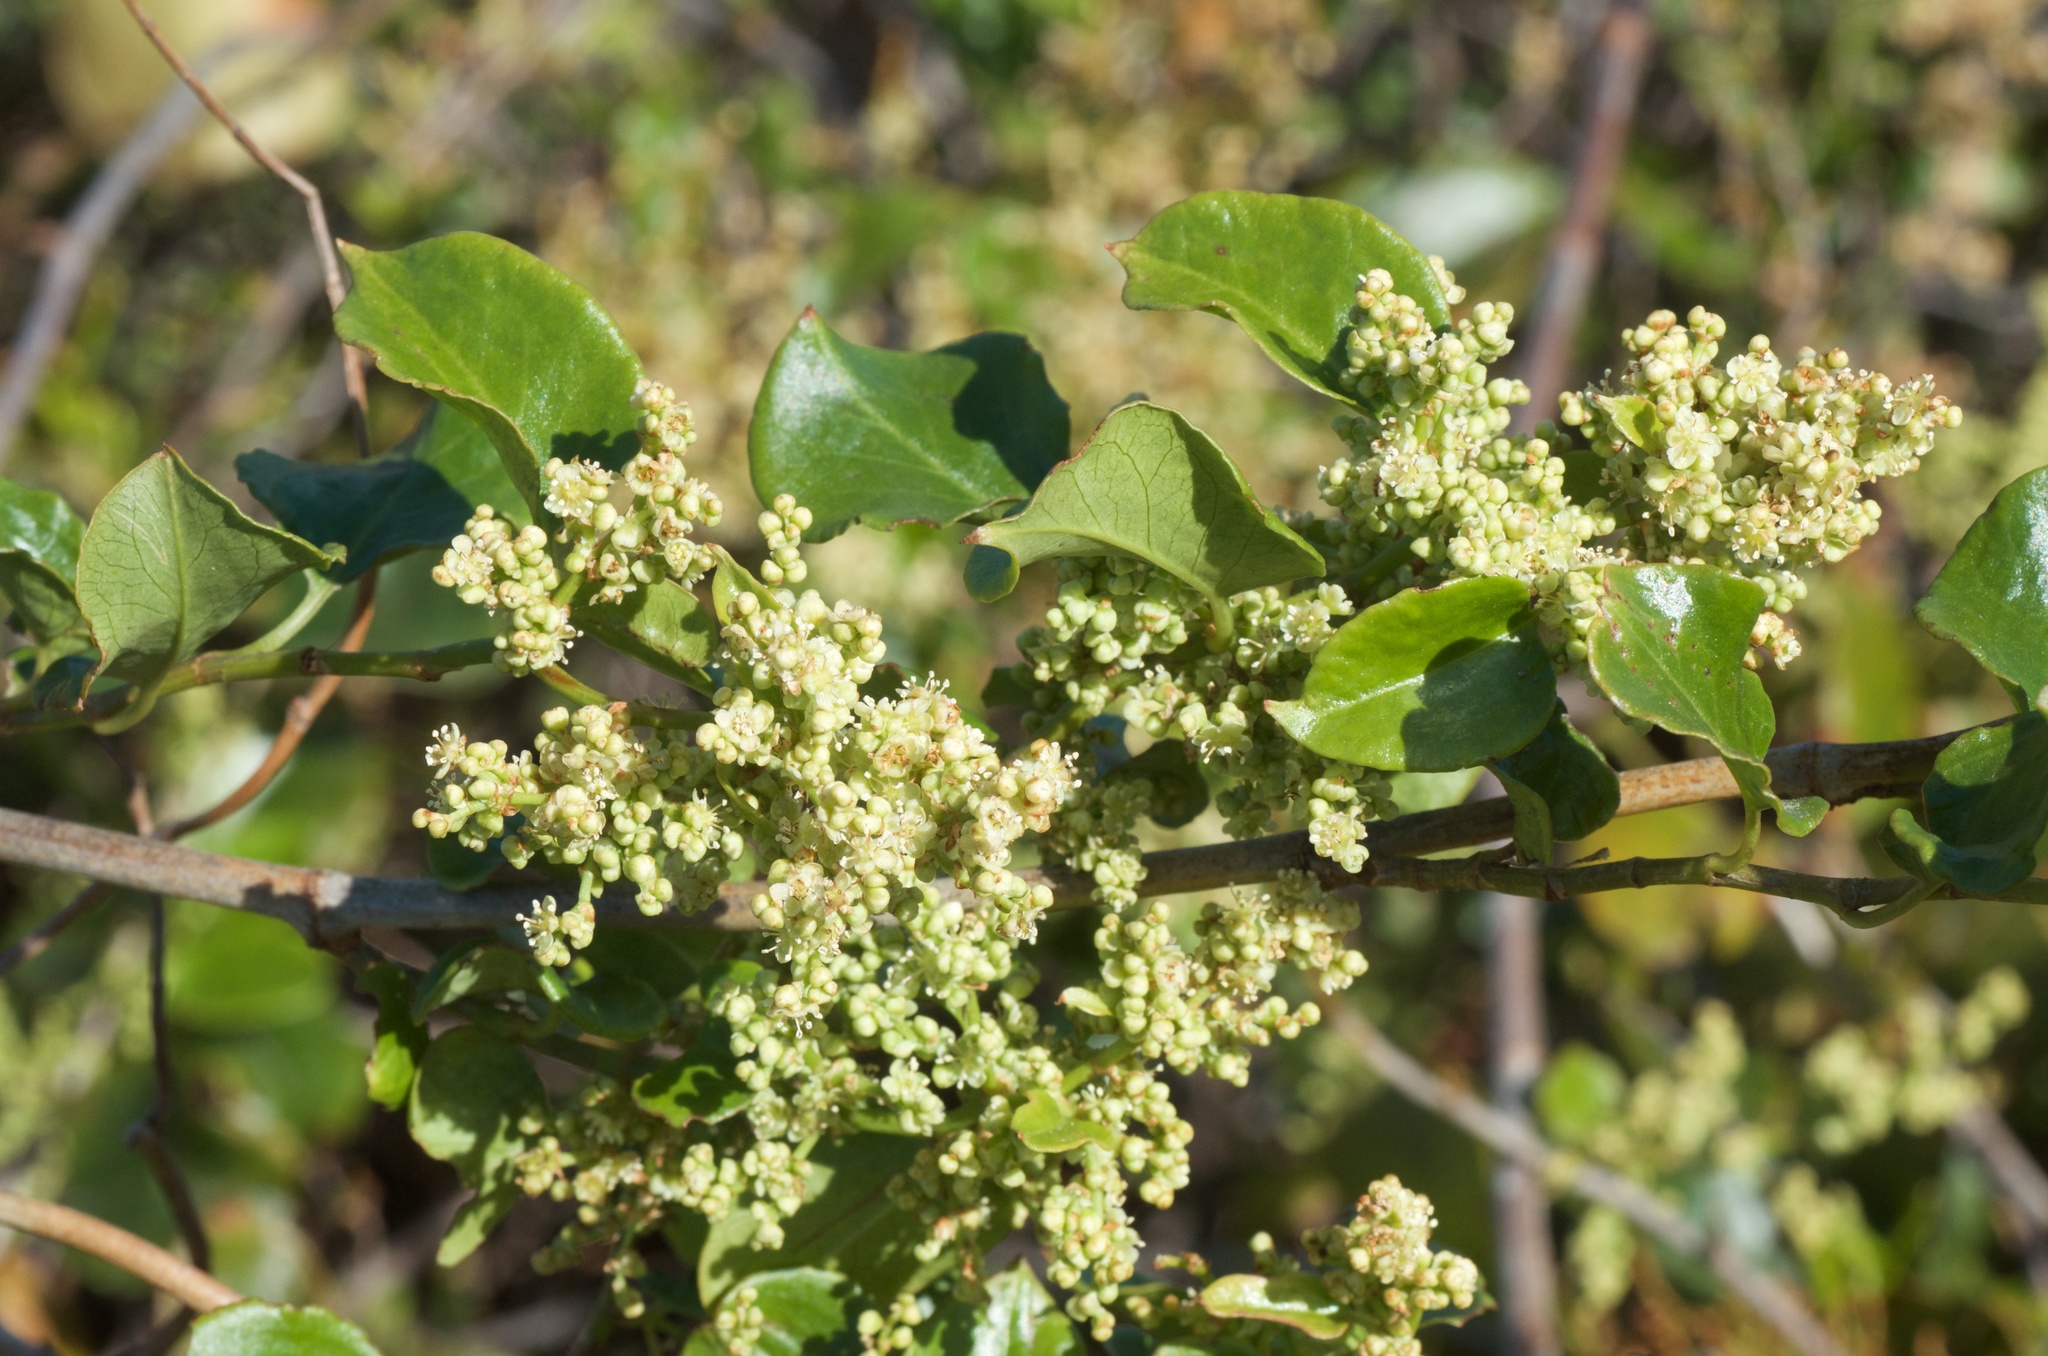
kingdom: Plantae
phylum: Tracheophyta
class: Magnoliopsida
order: Caryophyllales
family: Polygonaceae
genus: Muehlenbeckia
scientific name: Muehlenbeckia australis
